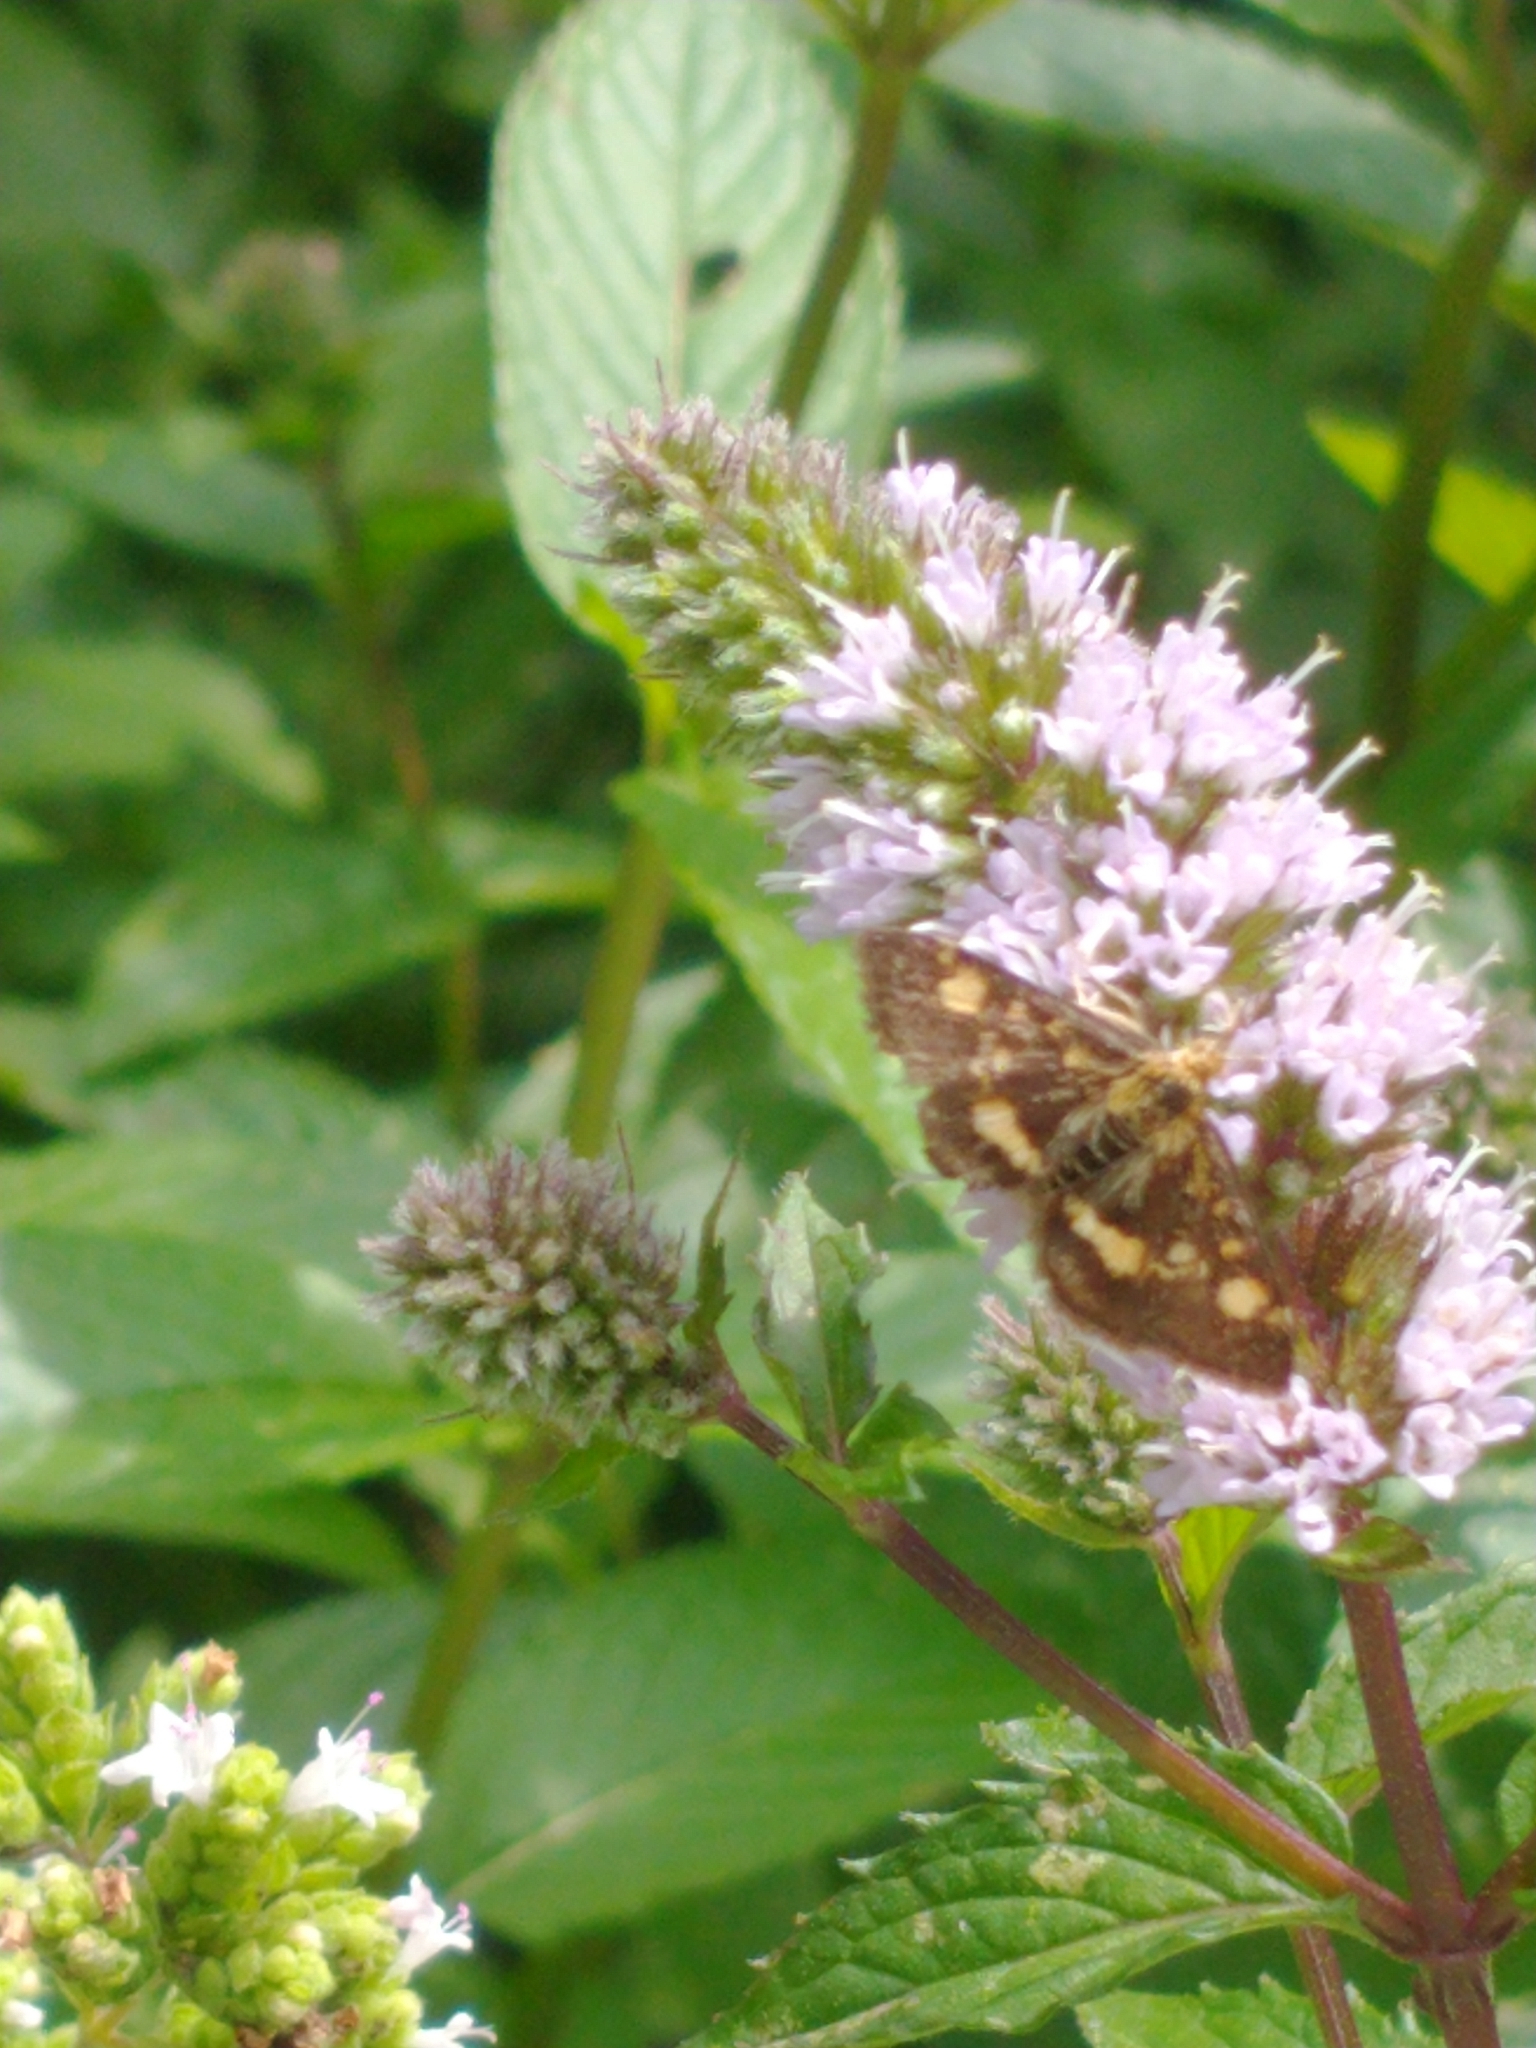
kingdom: Animalia
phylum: Arthropoda
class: Insecta
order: Lepidoptera
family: Crambidae
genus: Pyrausta
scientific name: Pyrausta aurata
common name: Small purple & gold
